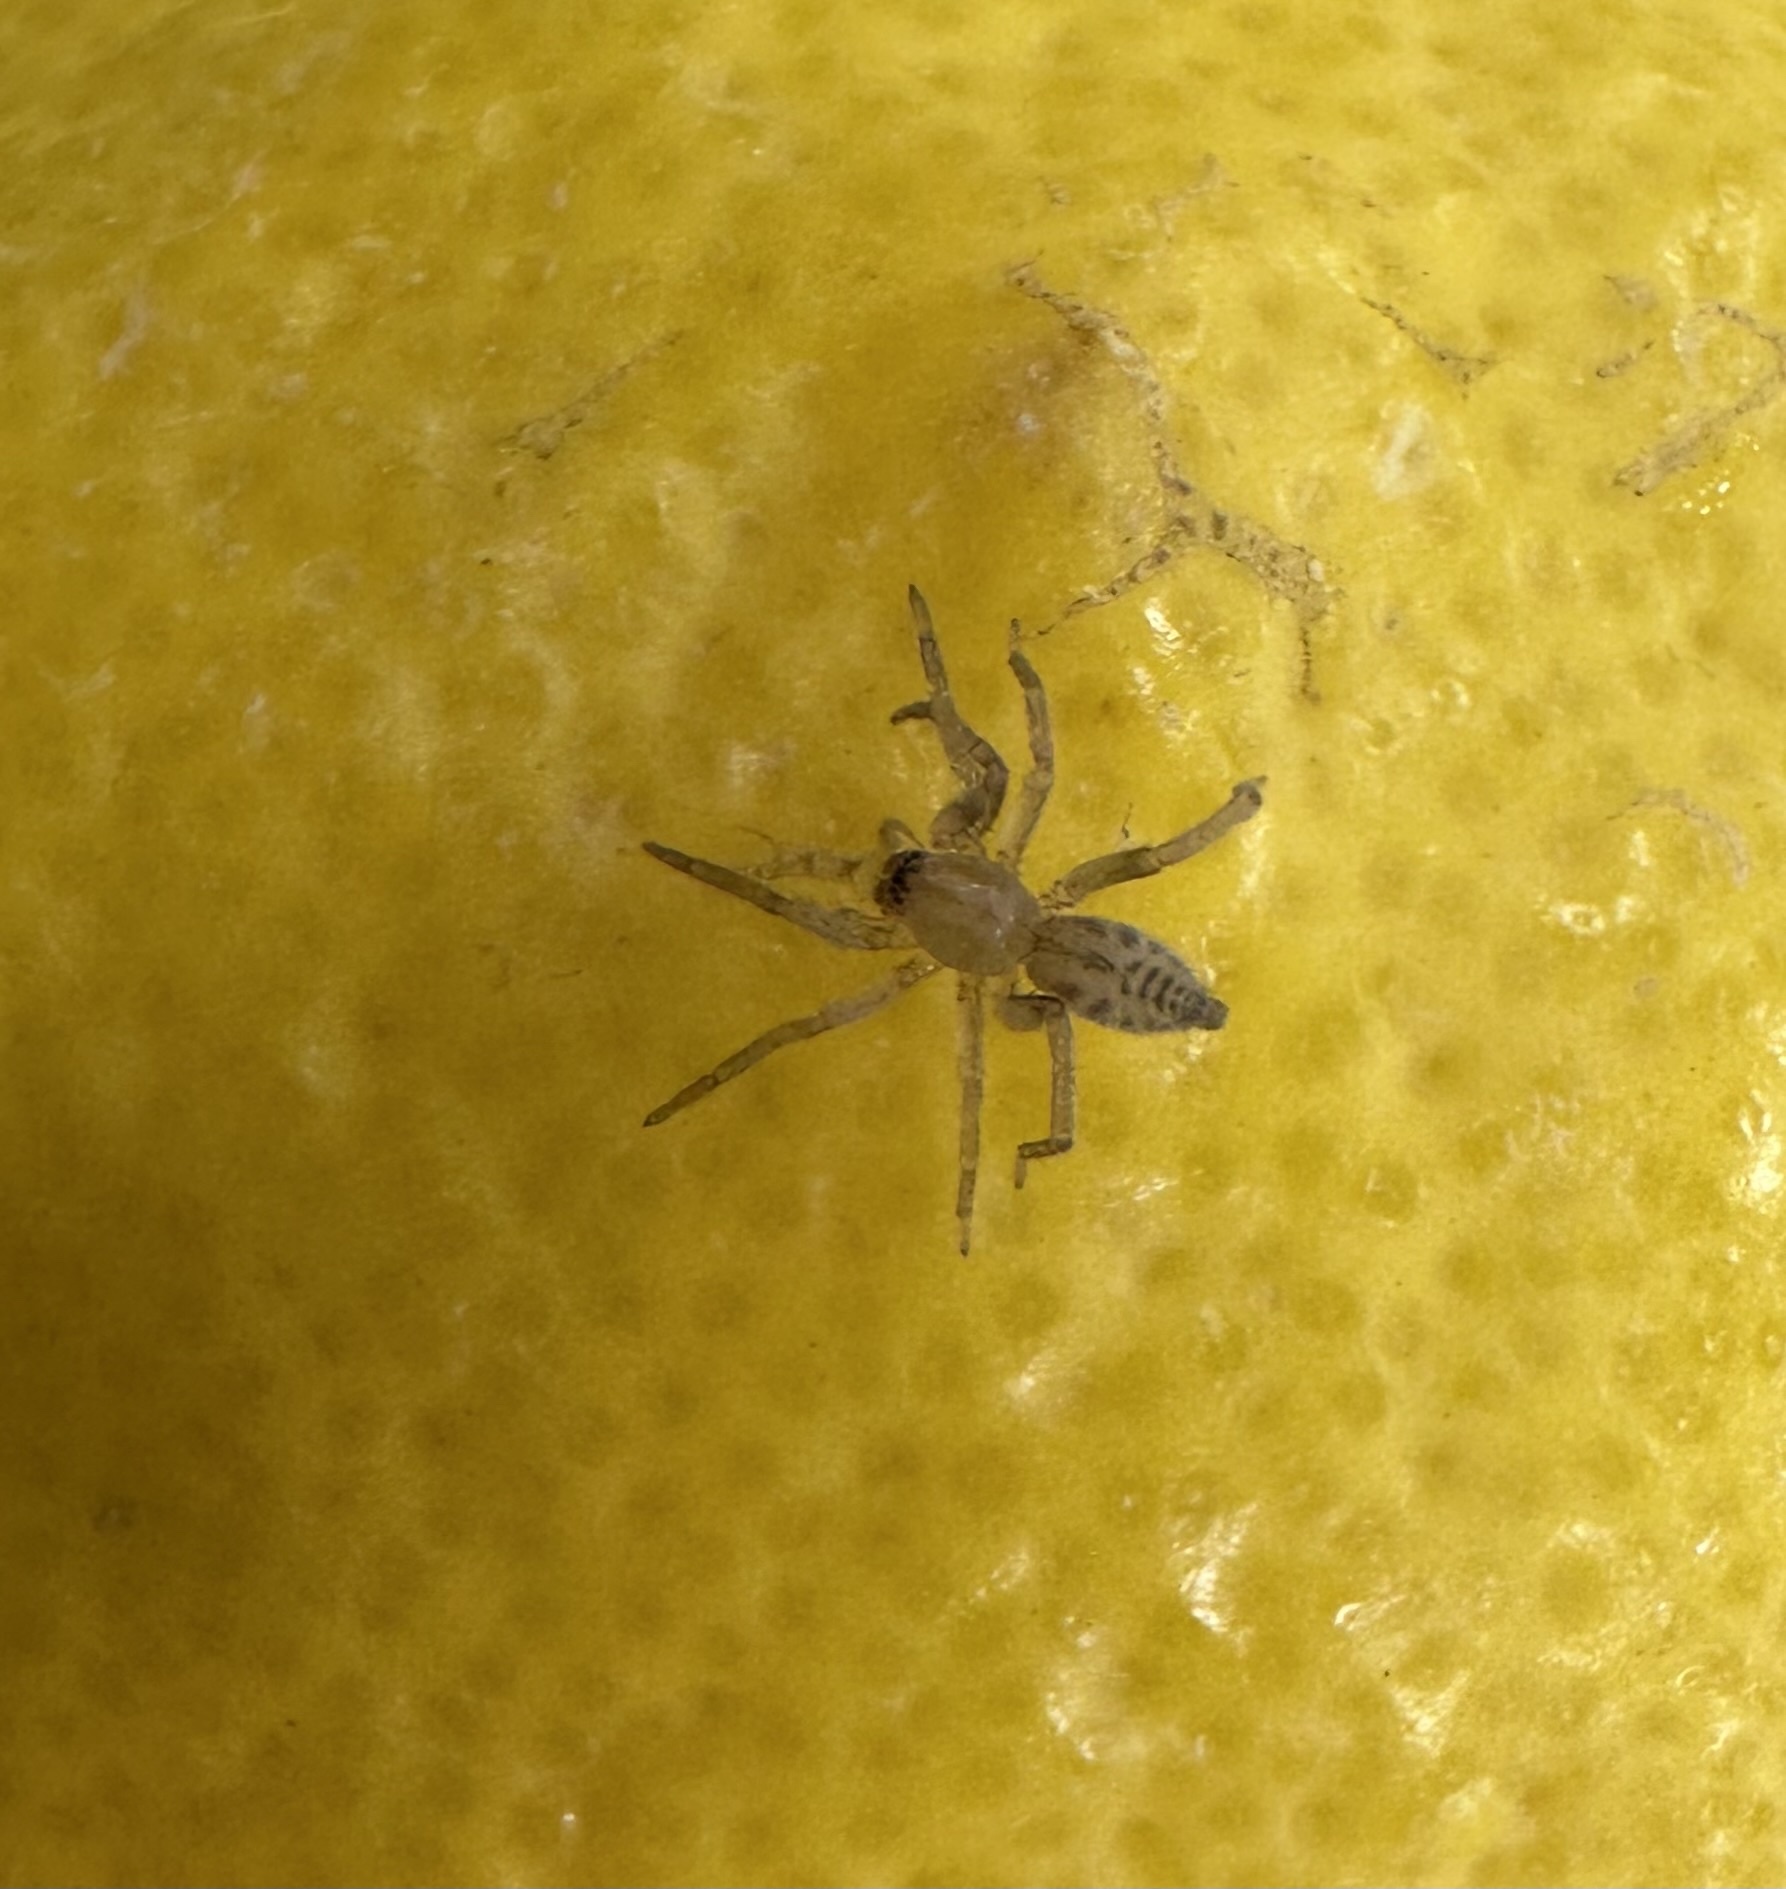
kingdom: Animalia
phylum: Arthropoda
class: Arachnida
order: Araneae
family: Clubionidae
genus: Elaver
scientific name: Elaver excepta
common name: White sac spider
